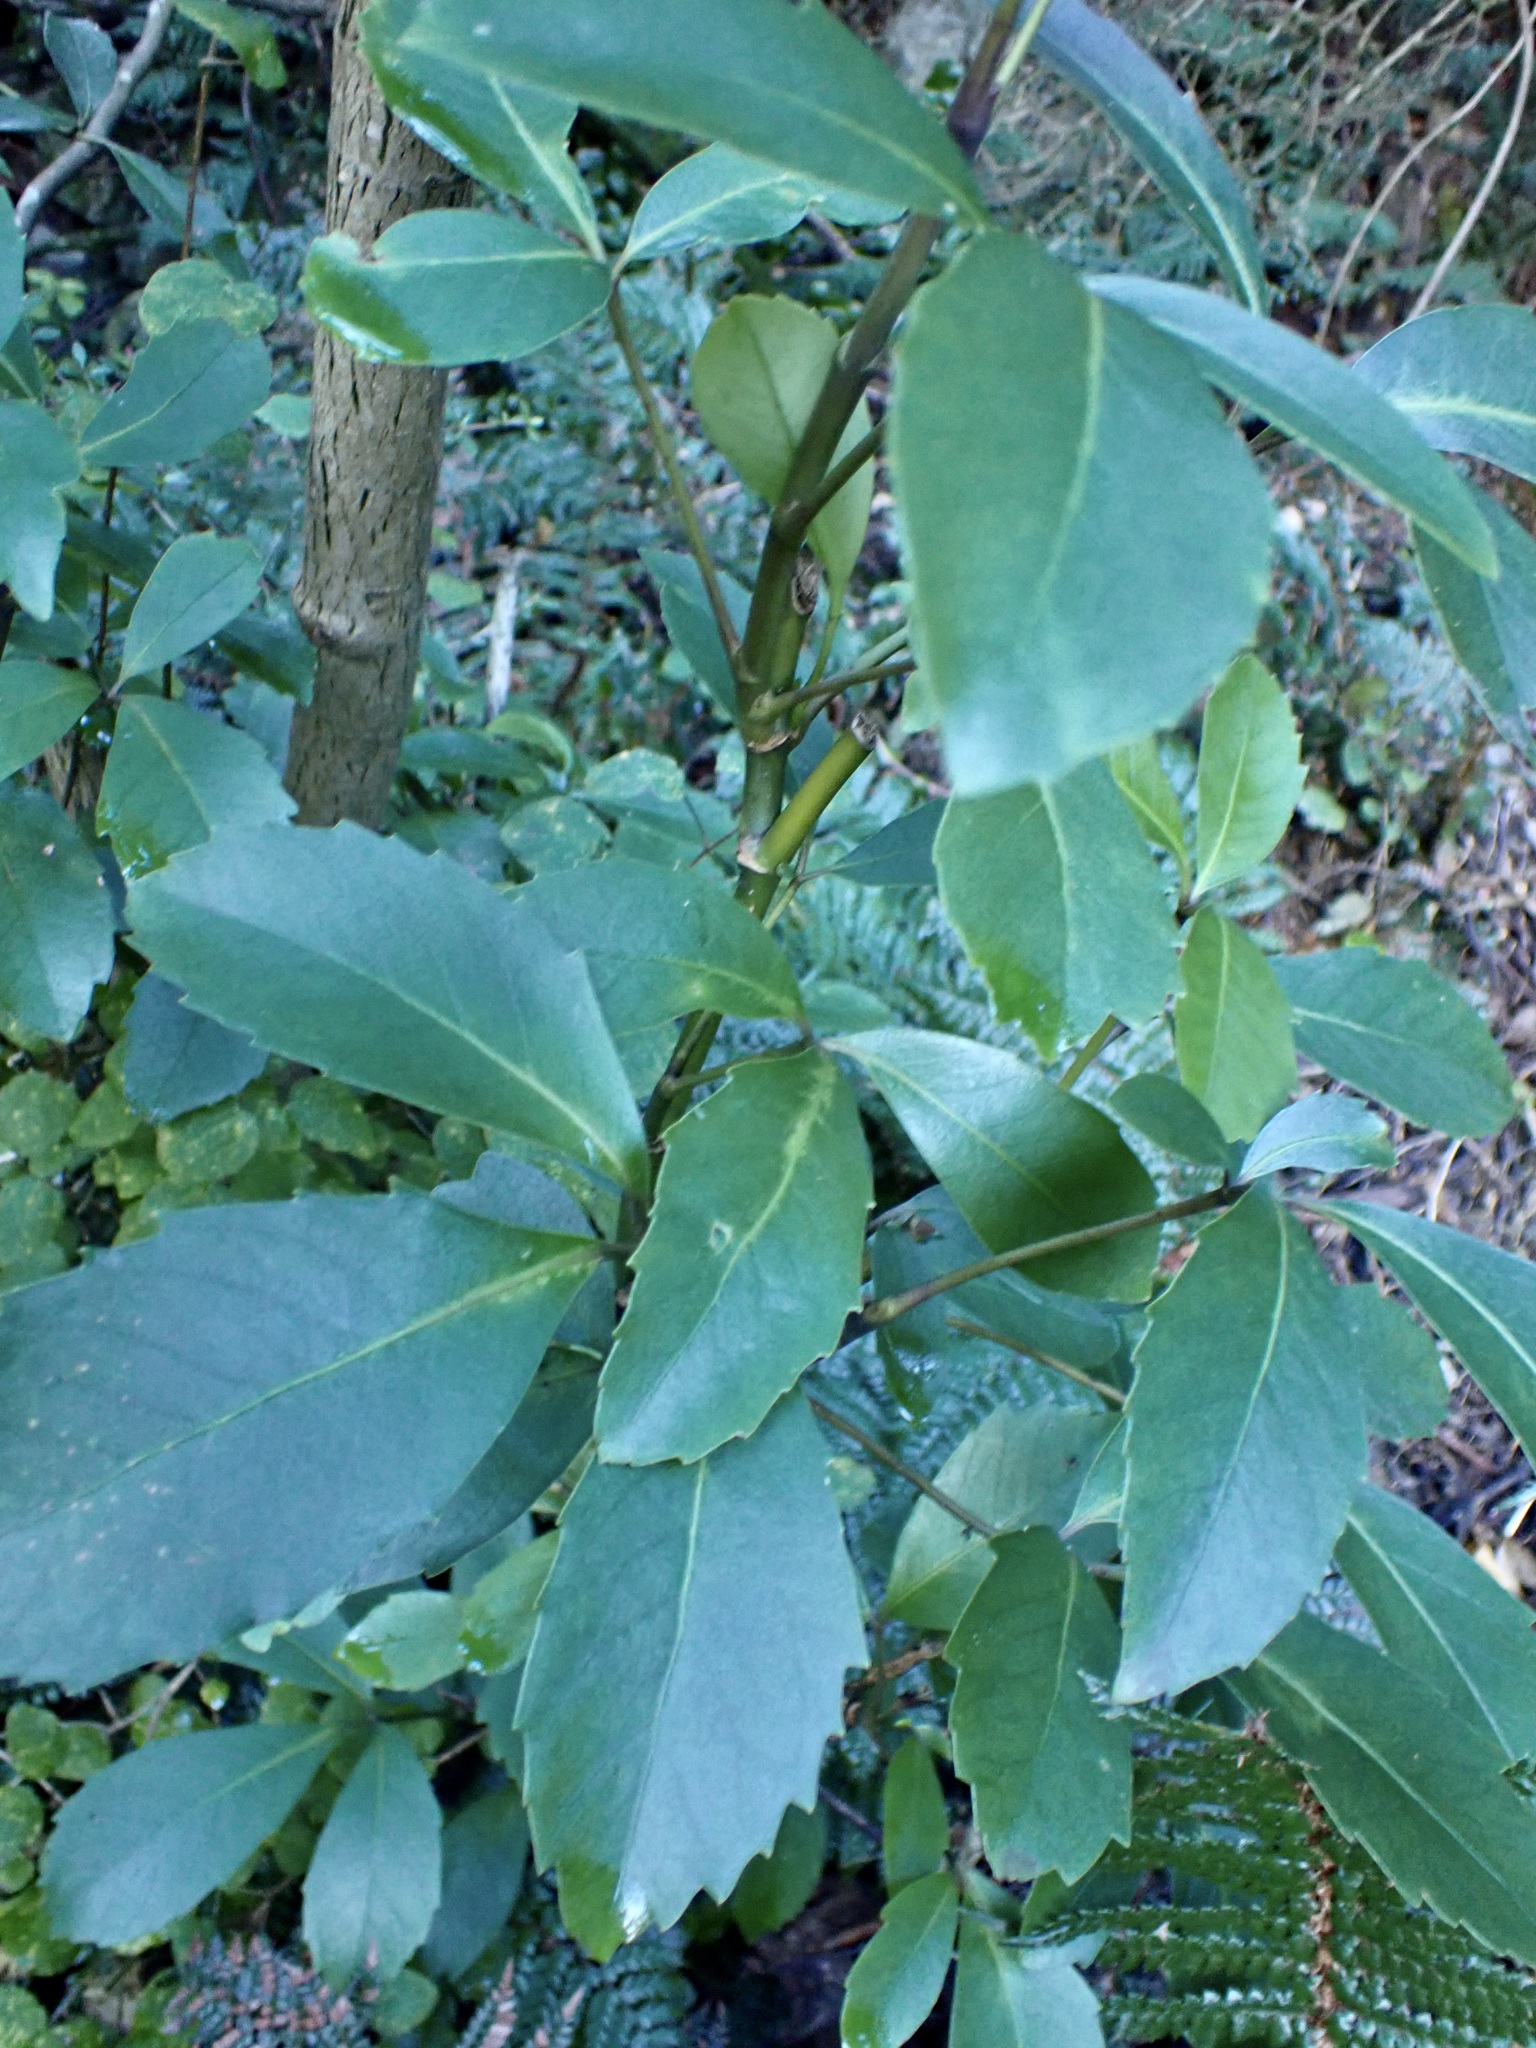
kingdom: Plantae
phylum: Tracheophyta
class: Magnoliopsida
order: Apiales
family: Araliaceae
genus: Neopanax
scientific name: Neopanax colensoi
